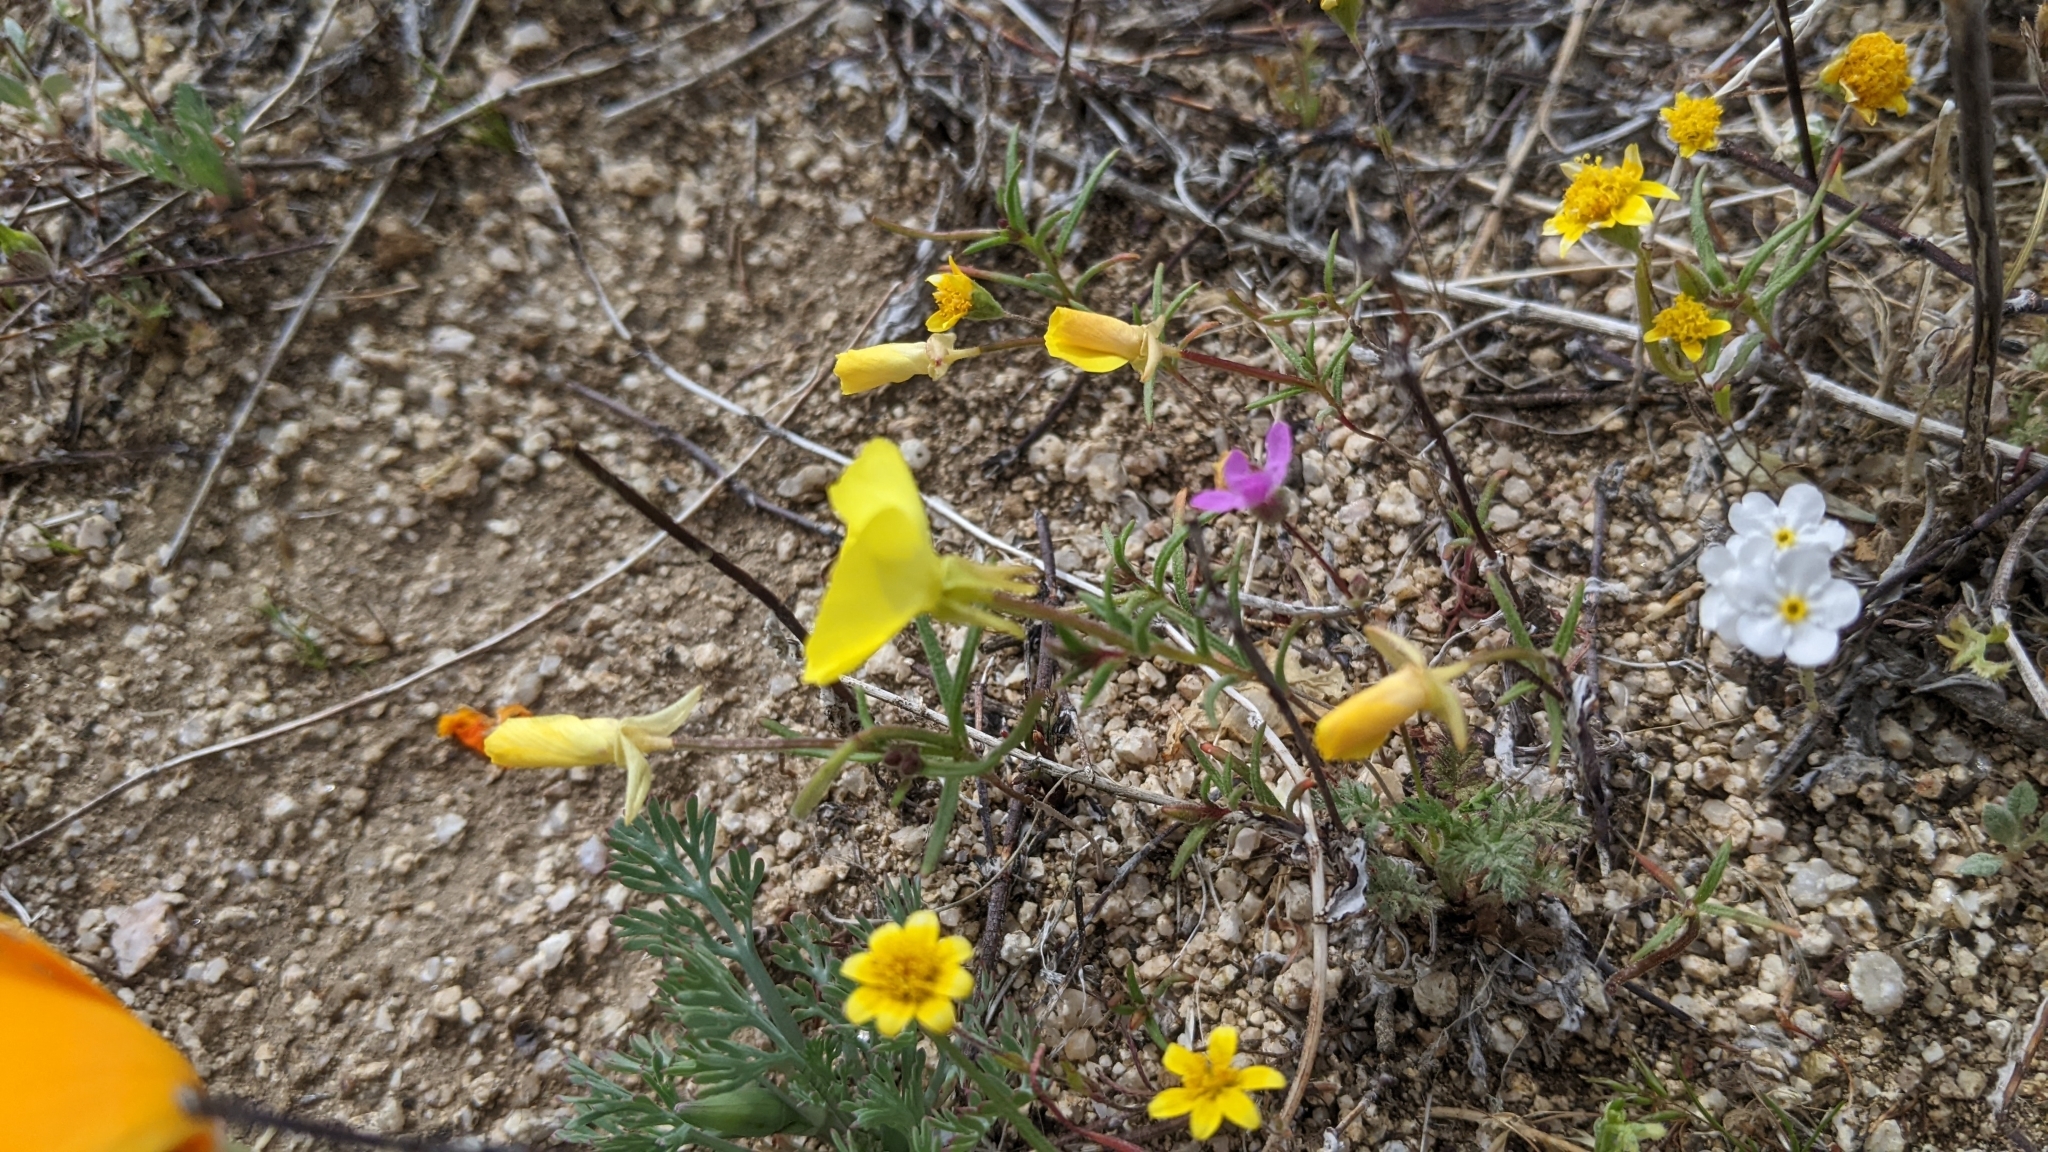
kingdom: Plantae
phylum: Tracheophyta
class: Magnoliopsida
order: Myrtales
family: Onagraceae
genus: Camissonia
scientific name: Camissonia campestris
